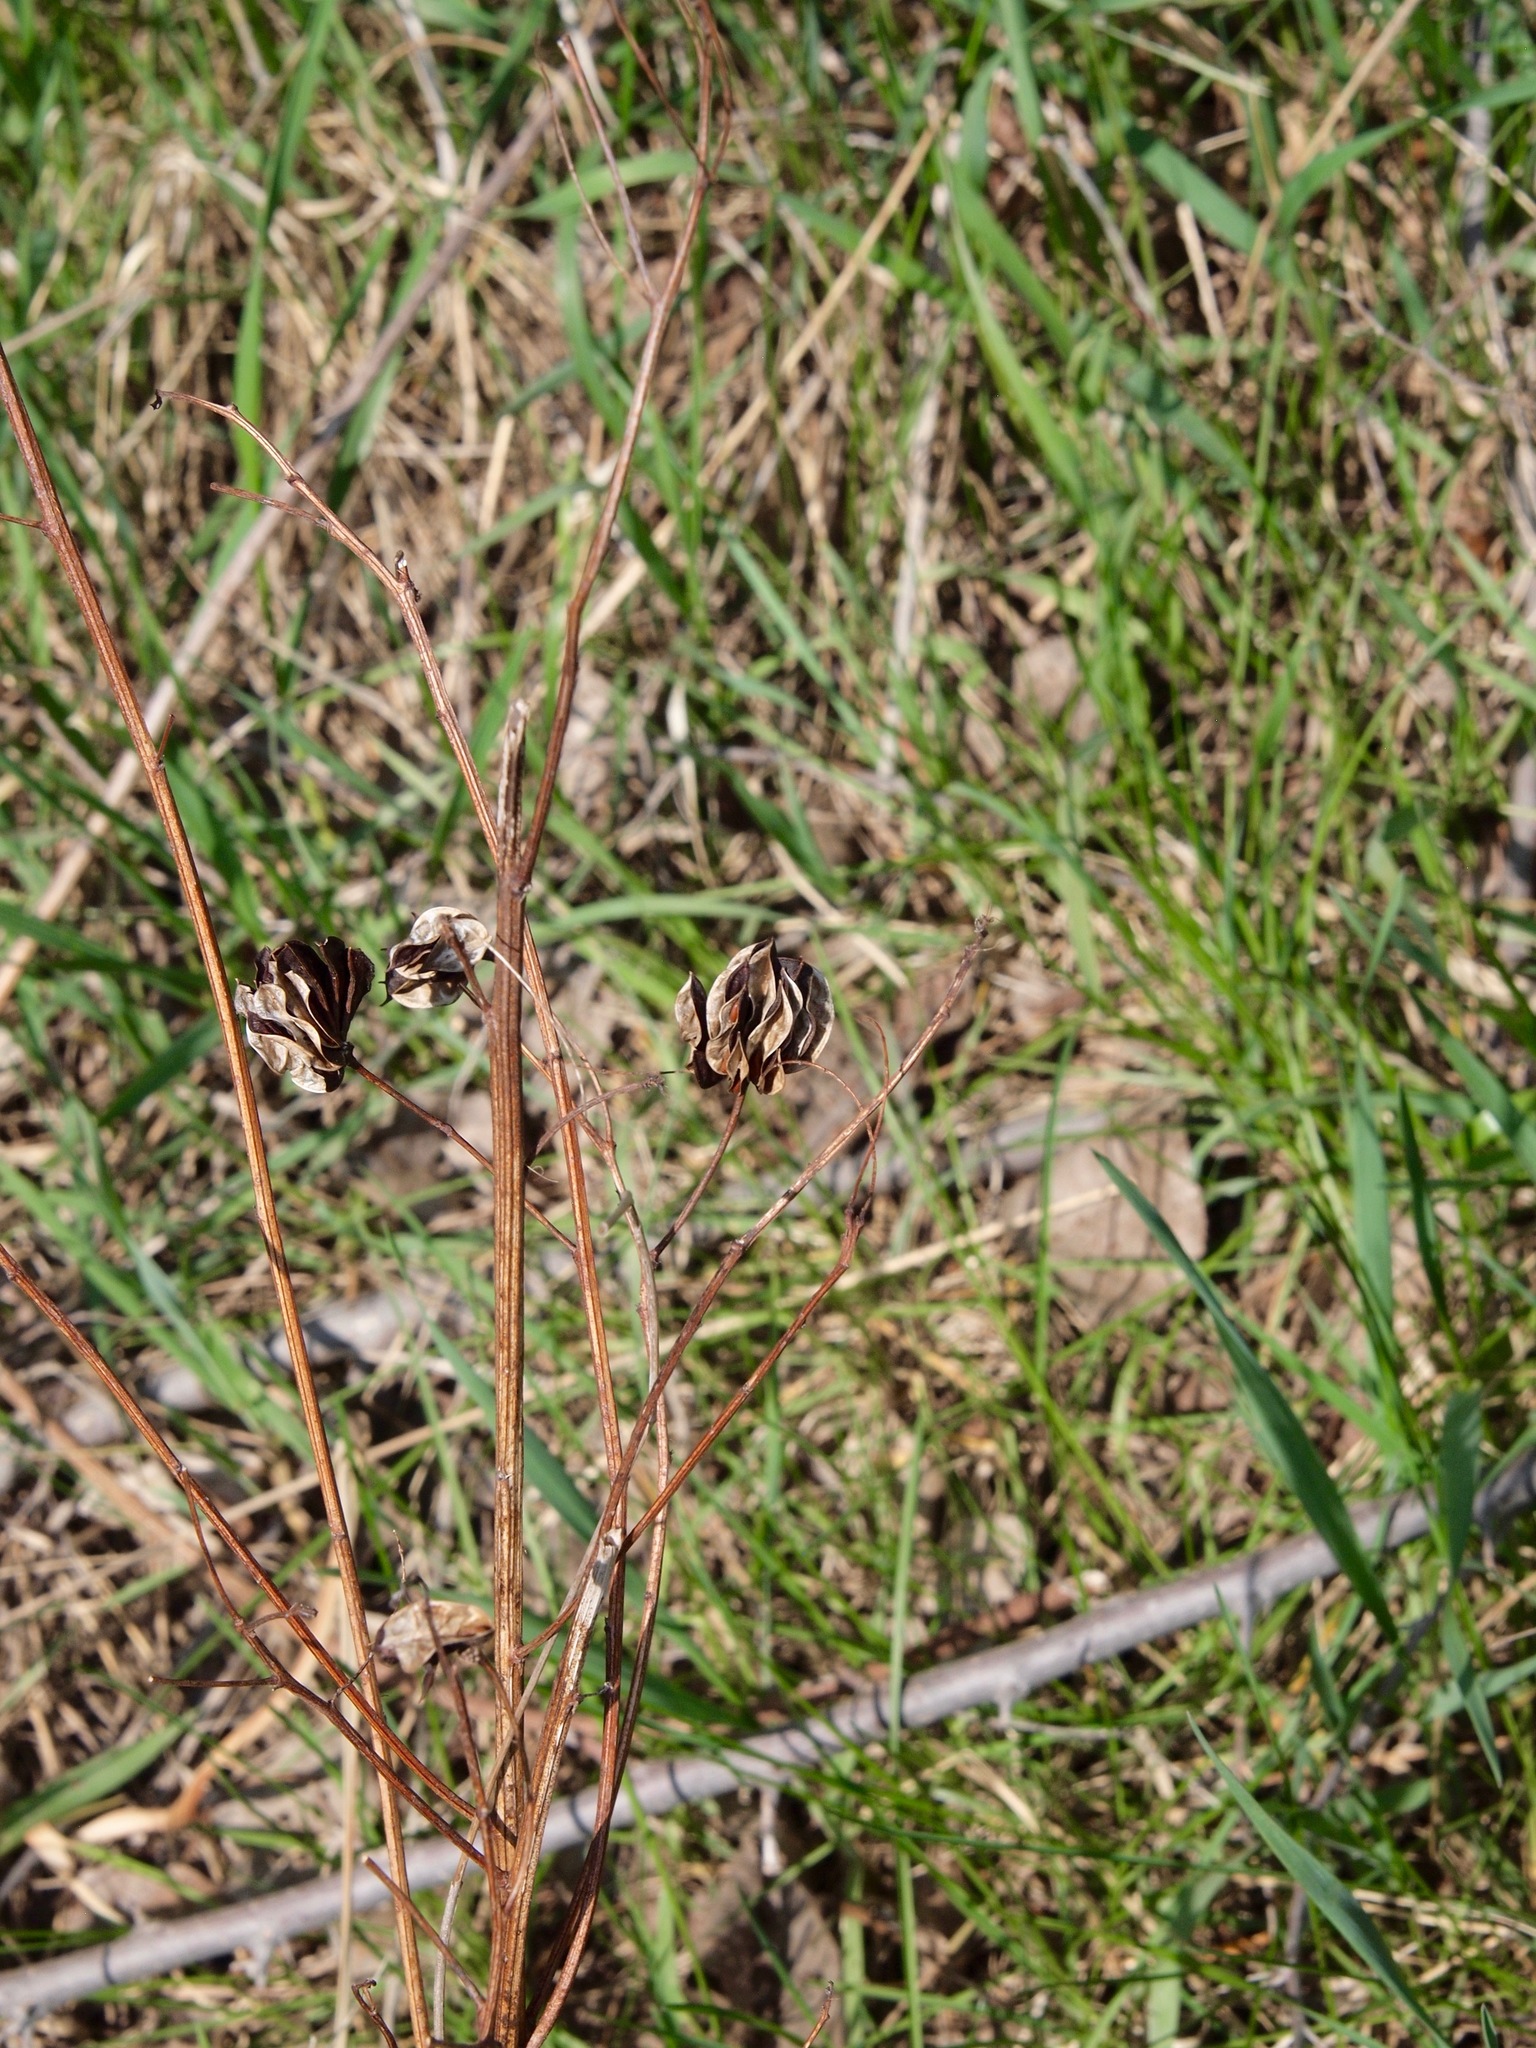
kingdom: Plantae
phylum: Tracheophyta
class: Magnoliopsida
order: Fabales
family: Fabaceae
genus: Desmanthus
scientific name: Desmanthus illinoensis
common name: Illinois bundle-flower
